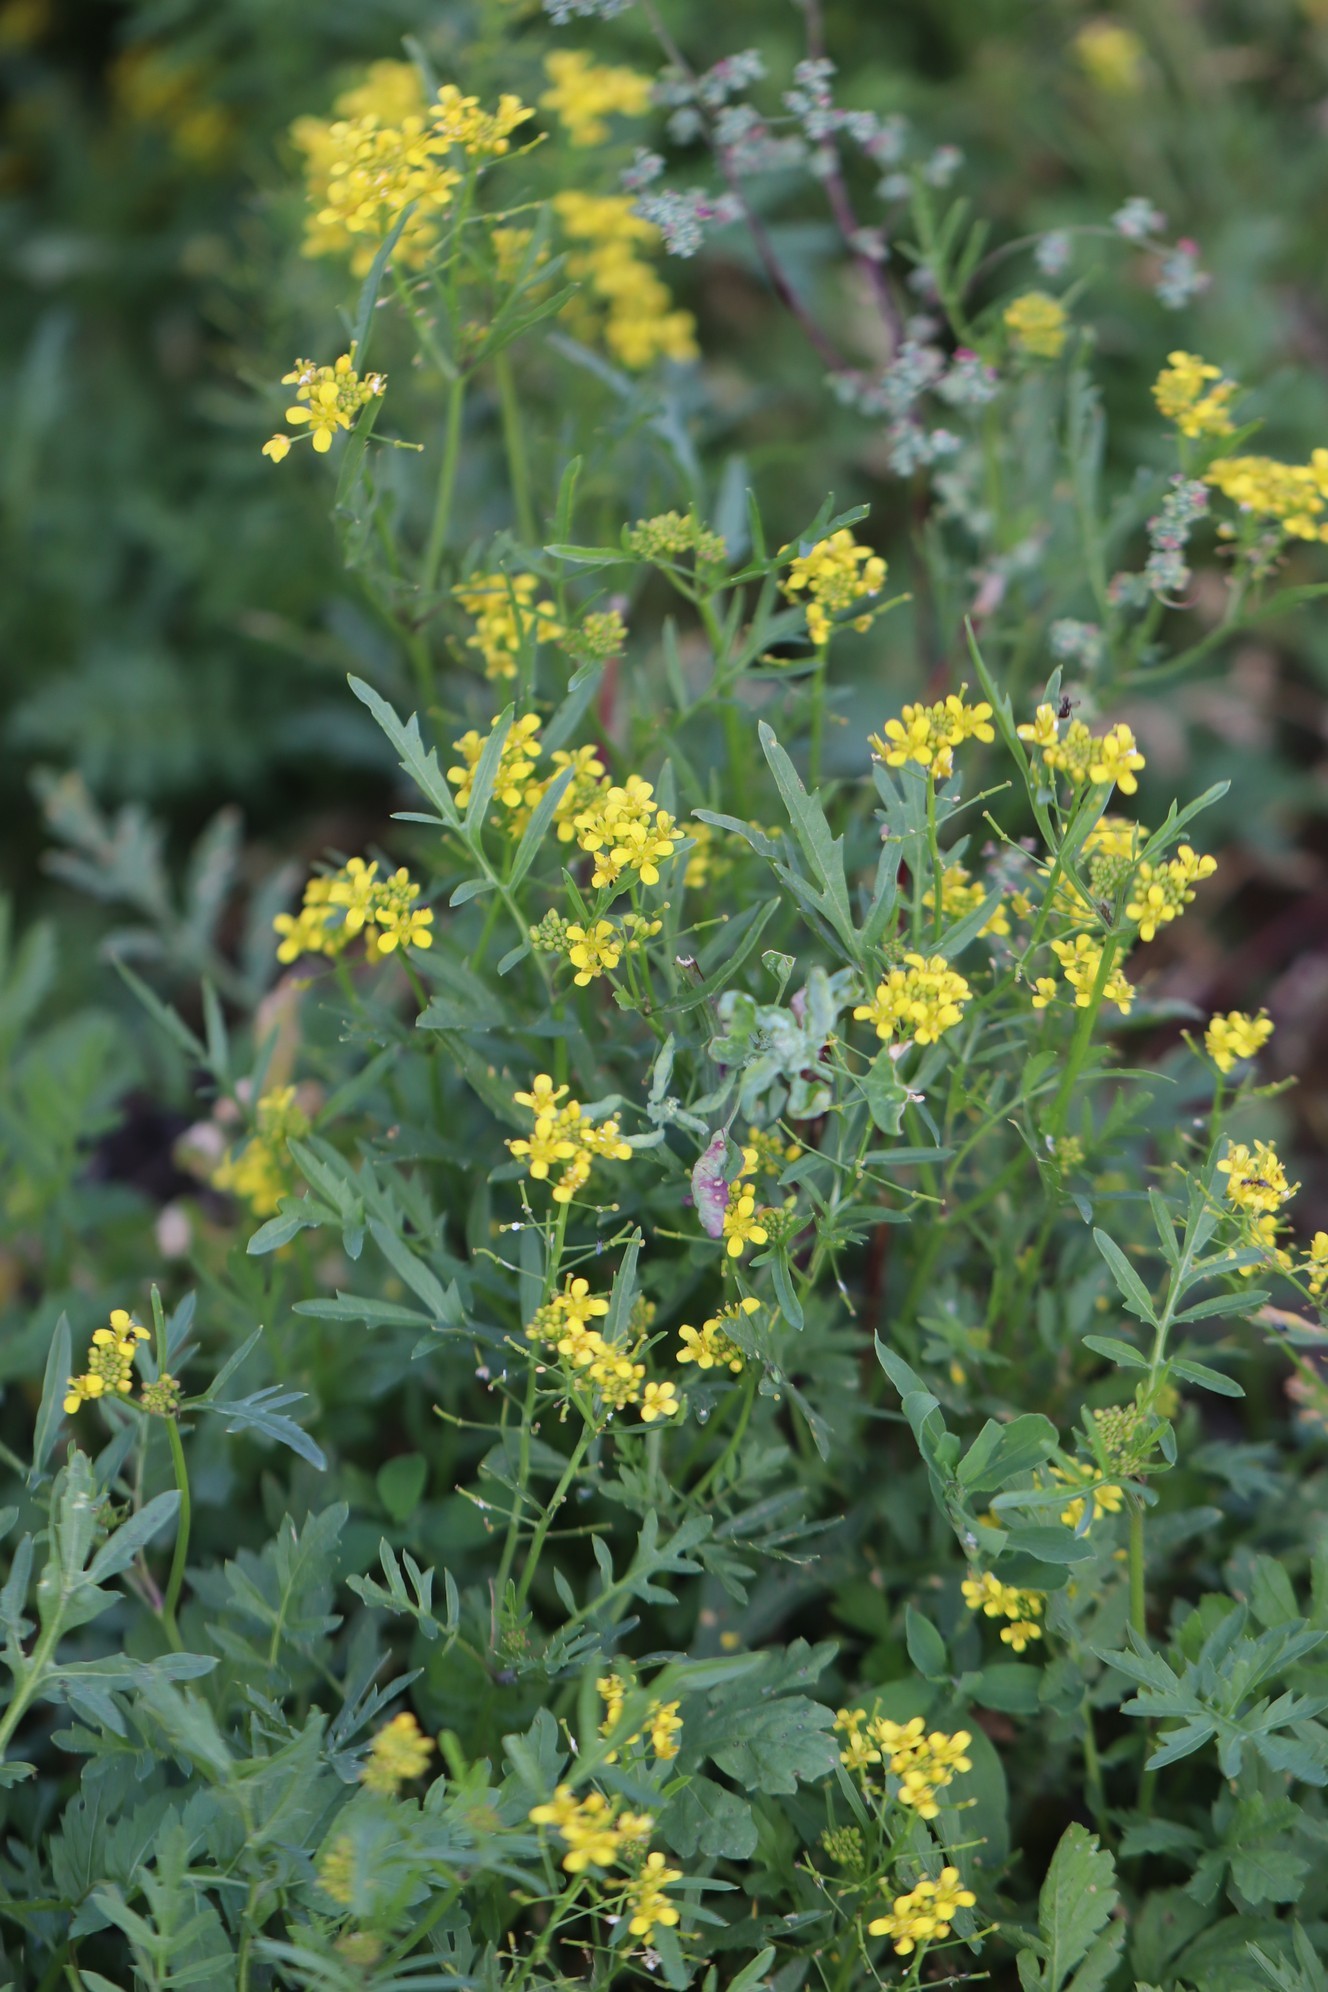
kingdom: Plantae
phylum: Tracheophyta
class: Magnoliopsida
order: Brassicales
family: Brassicaceae
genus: Rorippa
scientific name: Rorippa sylvestris
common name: Creeping yellowcress
